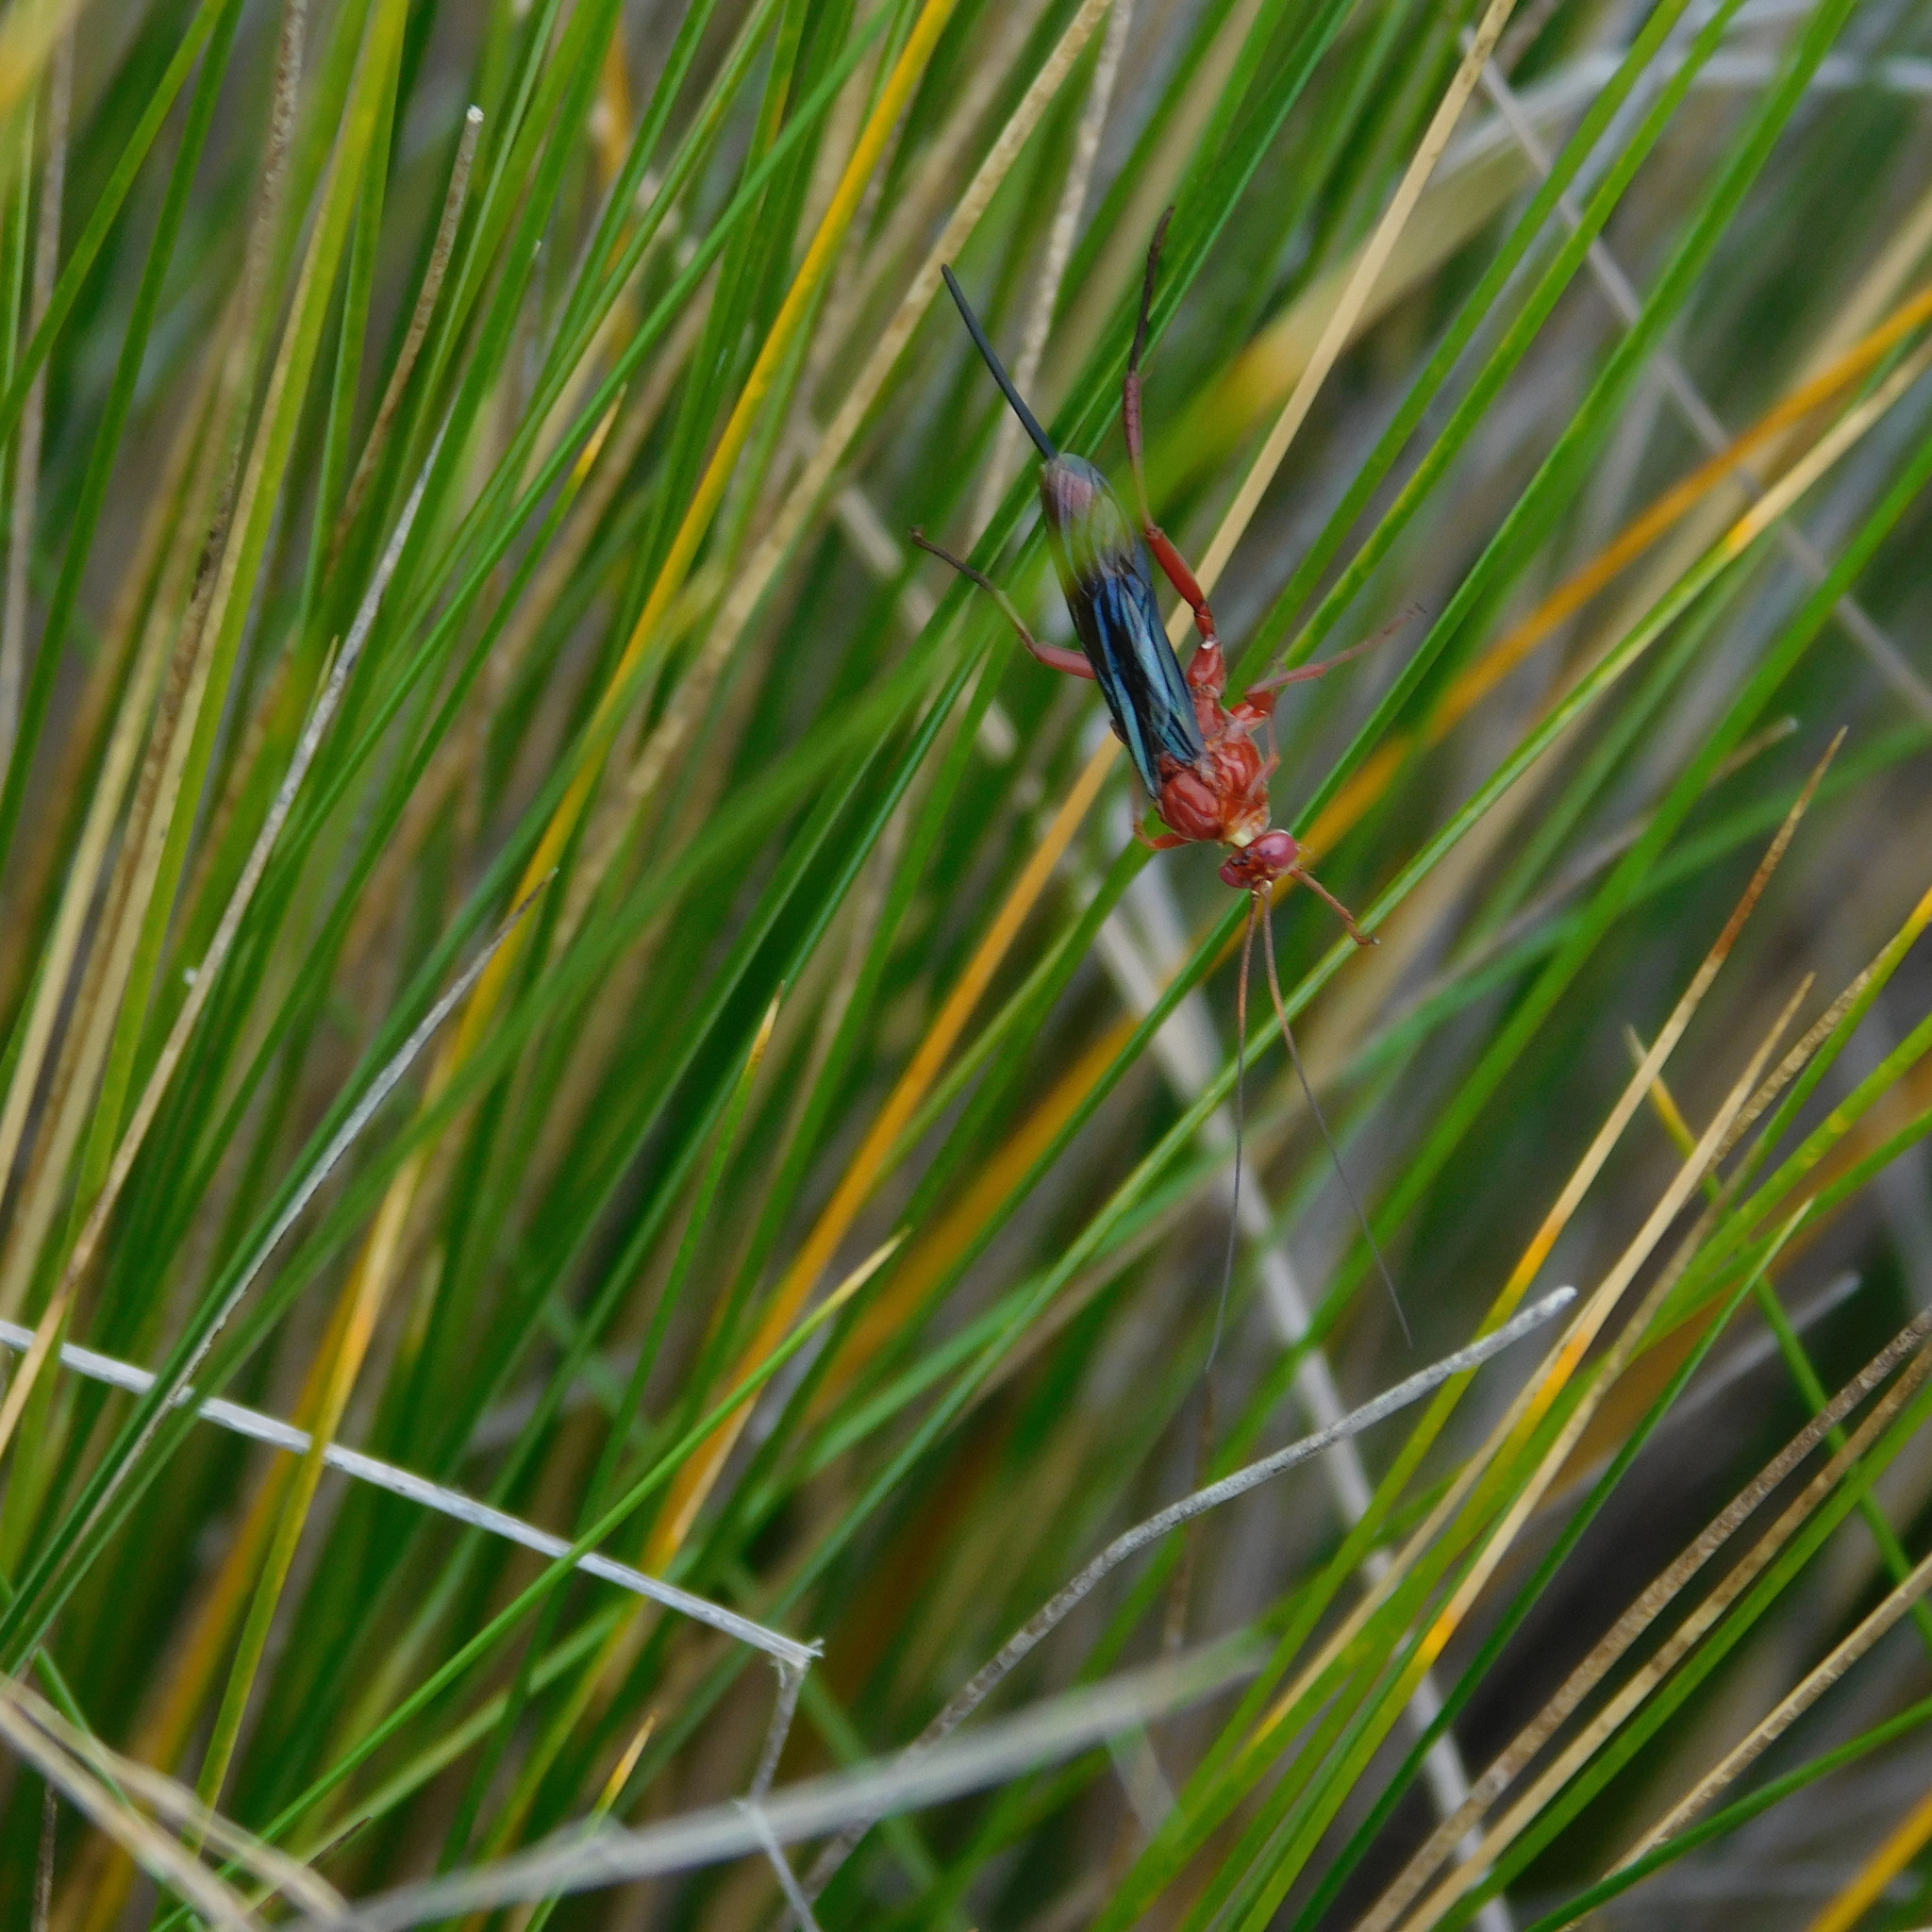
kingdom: Animalia
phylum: Arthropoda
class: Insecta
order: Hymenoptera
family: Ichneumonidae
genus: Lissopimpla
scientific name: Lissopimpla excelsa
